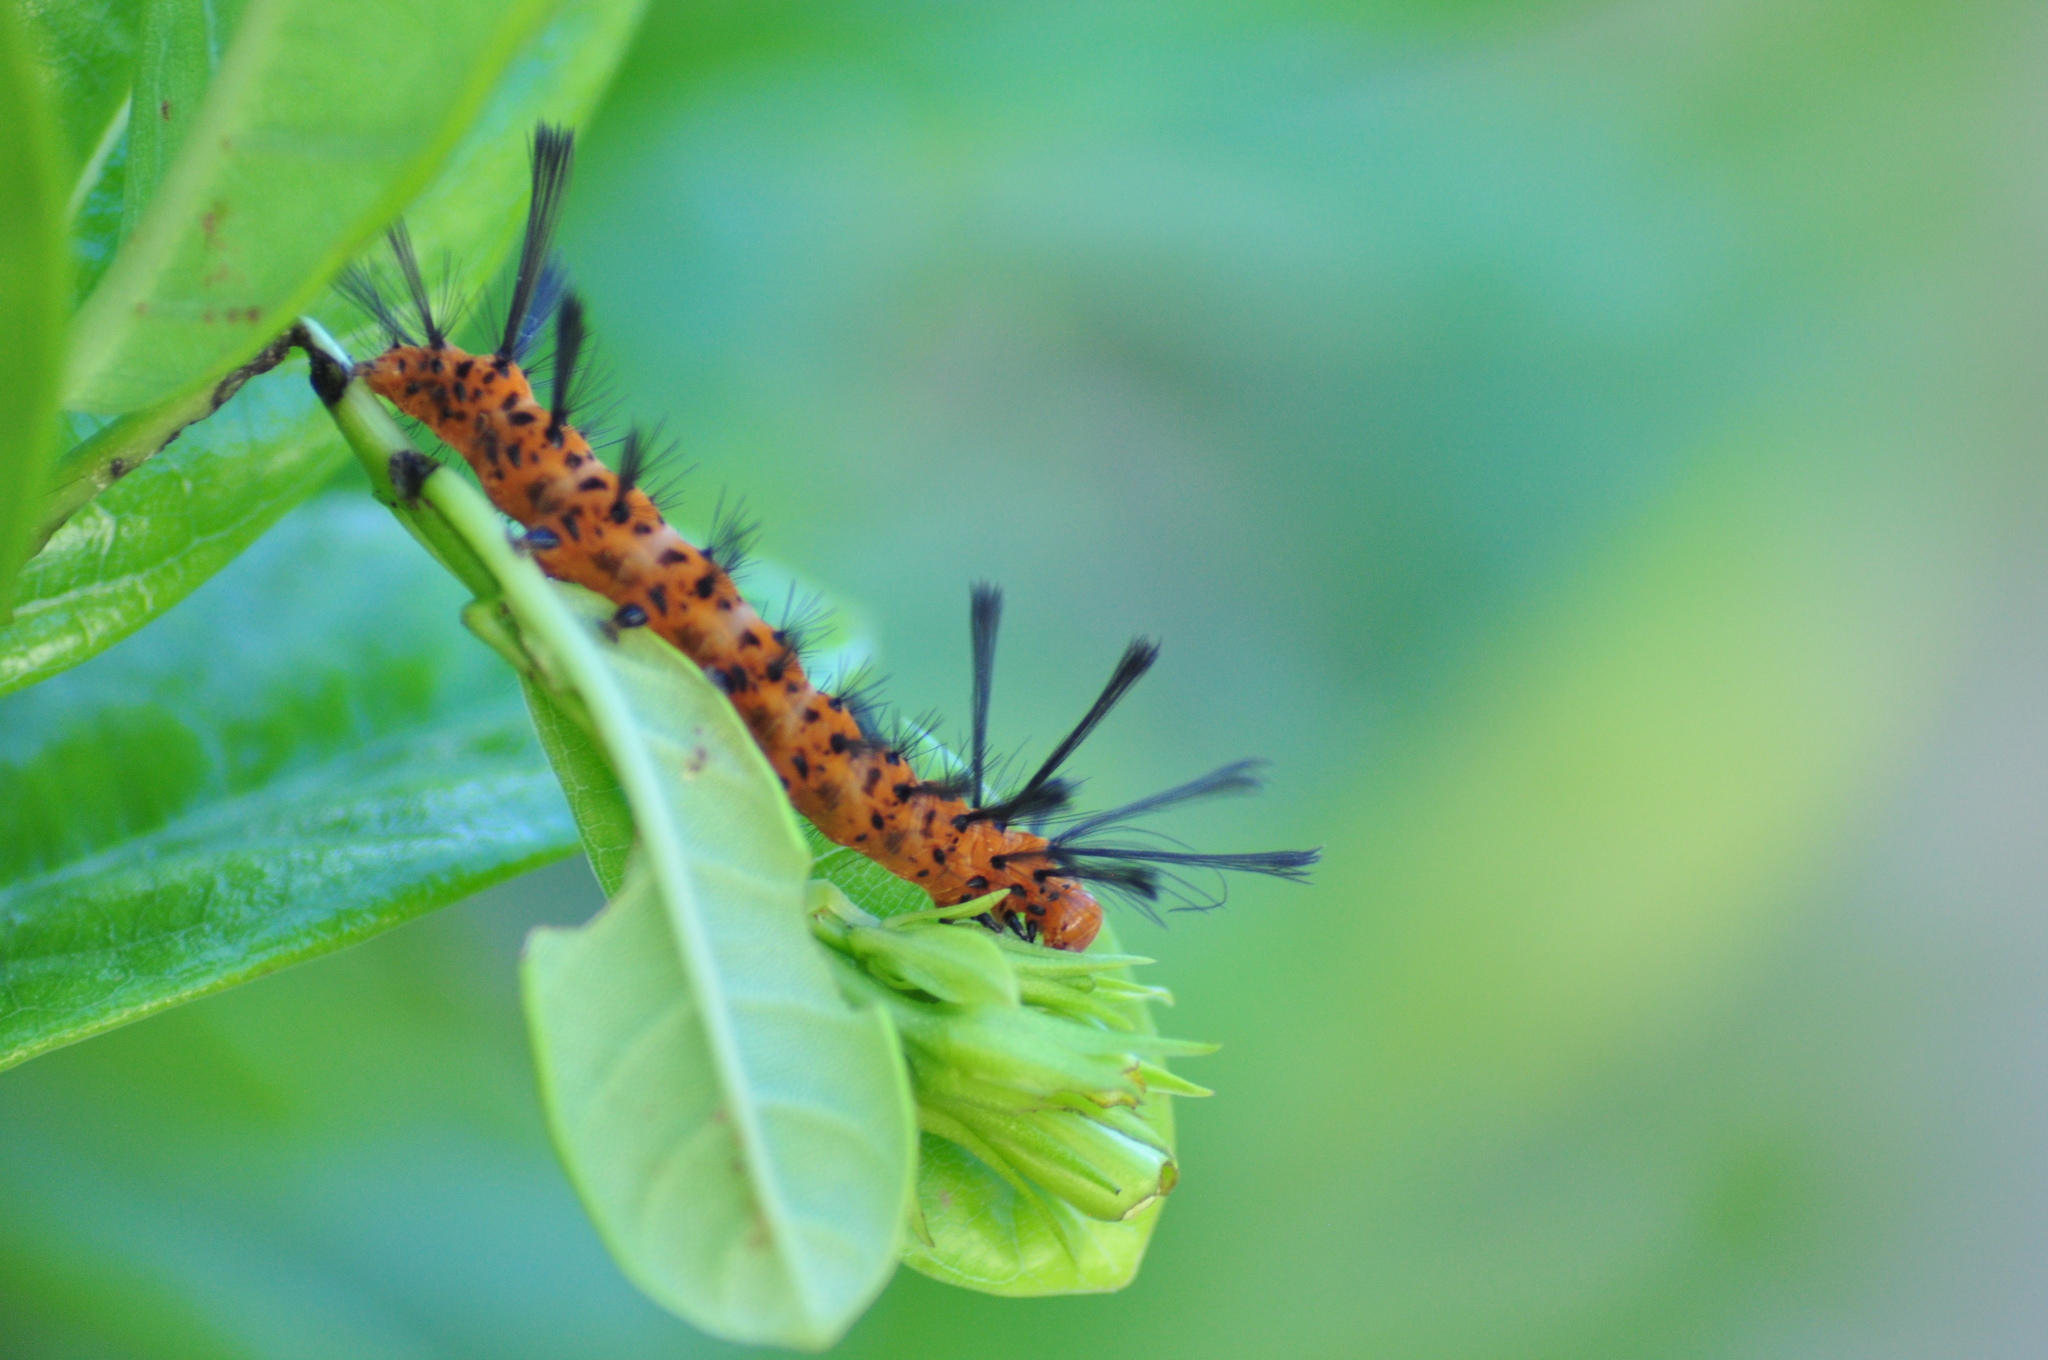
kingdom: Animalia
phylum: Arthropoda
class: Insecta
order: Lepidoptera
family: Erebidae
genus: Syntomeida
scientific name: Syntomeida epilais
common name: Polka-dot wasp moth
